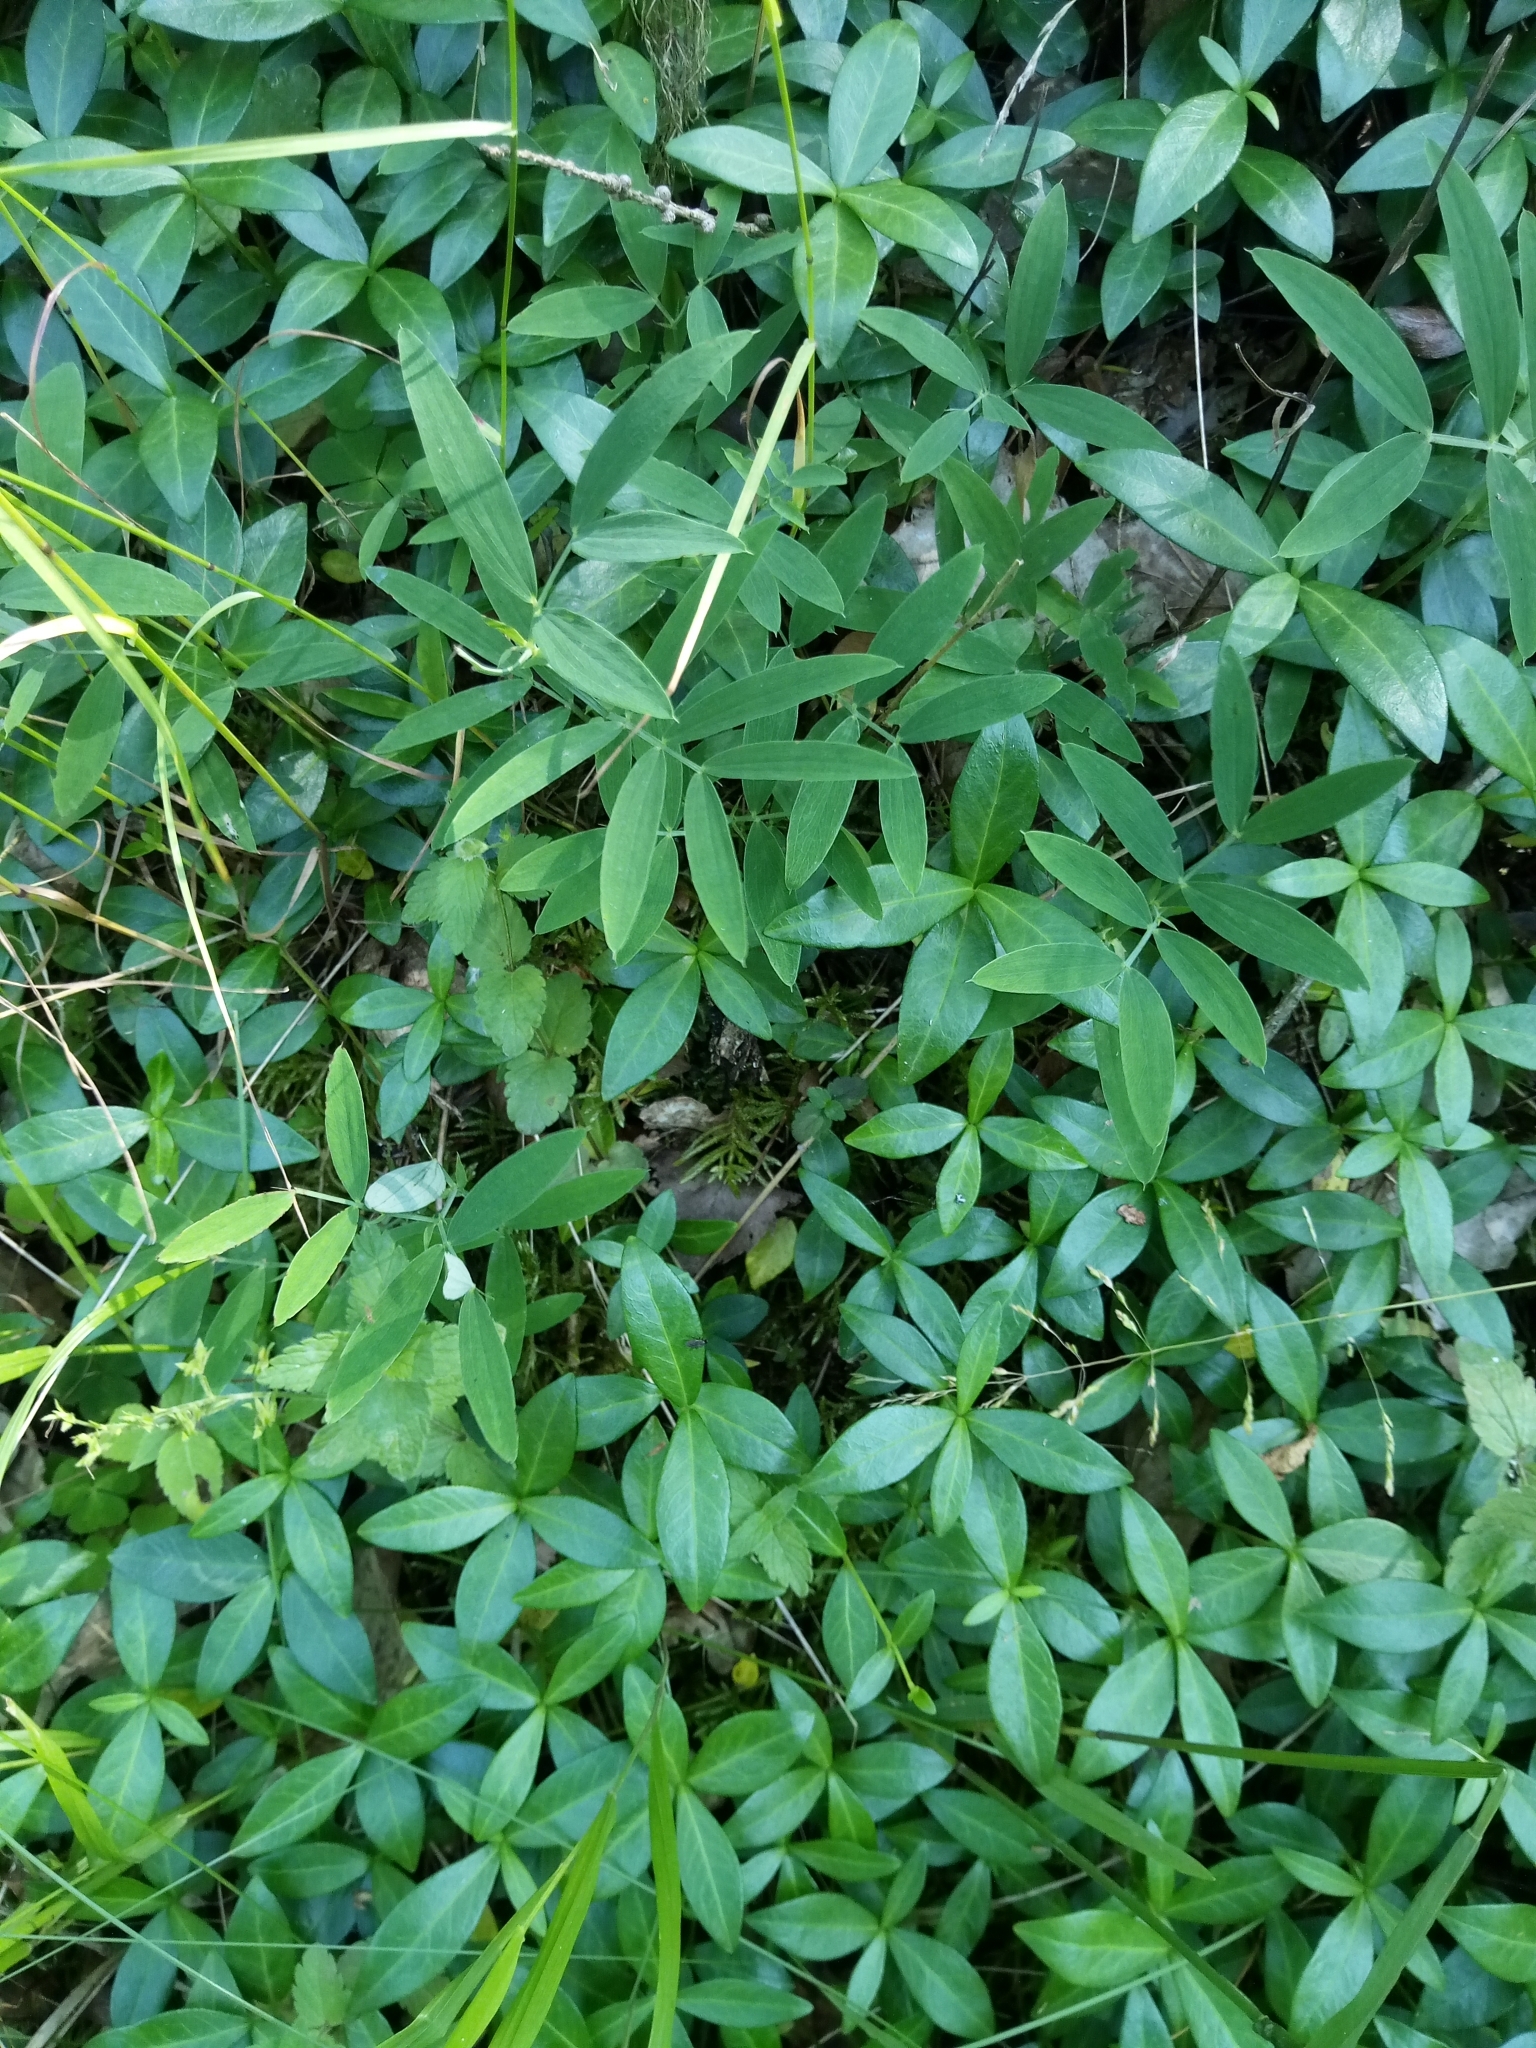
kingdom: Plantae
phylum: Tracheophyta
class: Magnoliopsida
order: Fabales
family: Fabaceae
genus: Lathyrus
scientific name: Lathyrus linifolius
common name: Bitter-vetch
